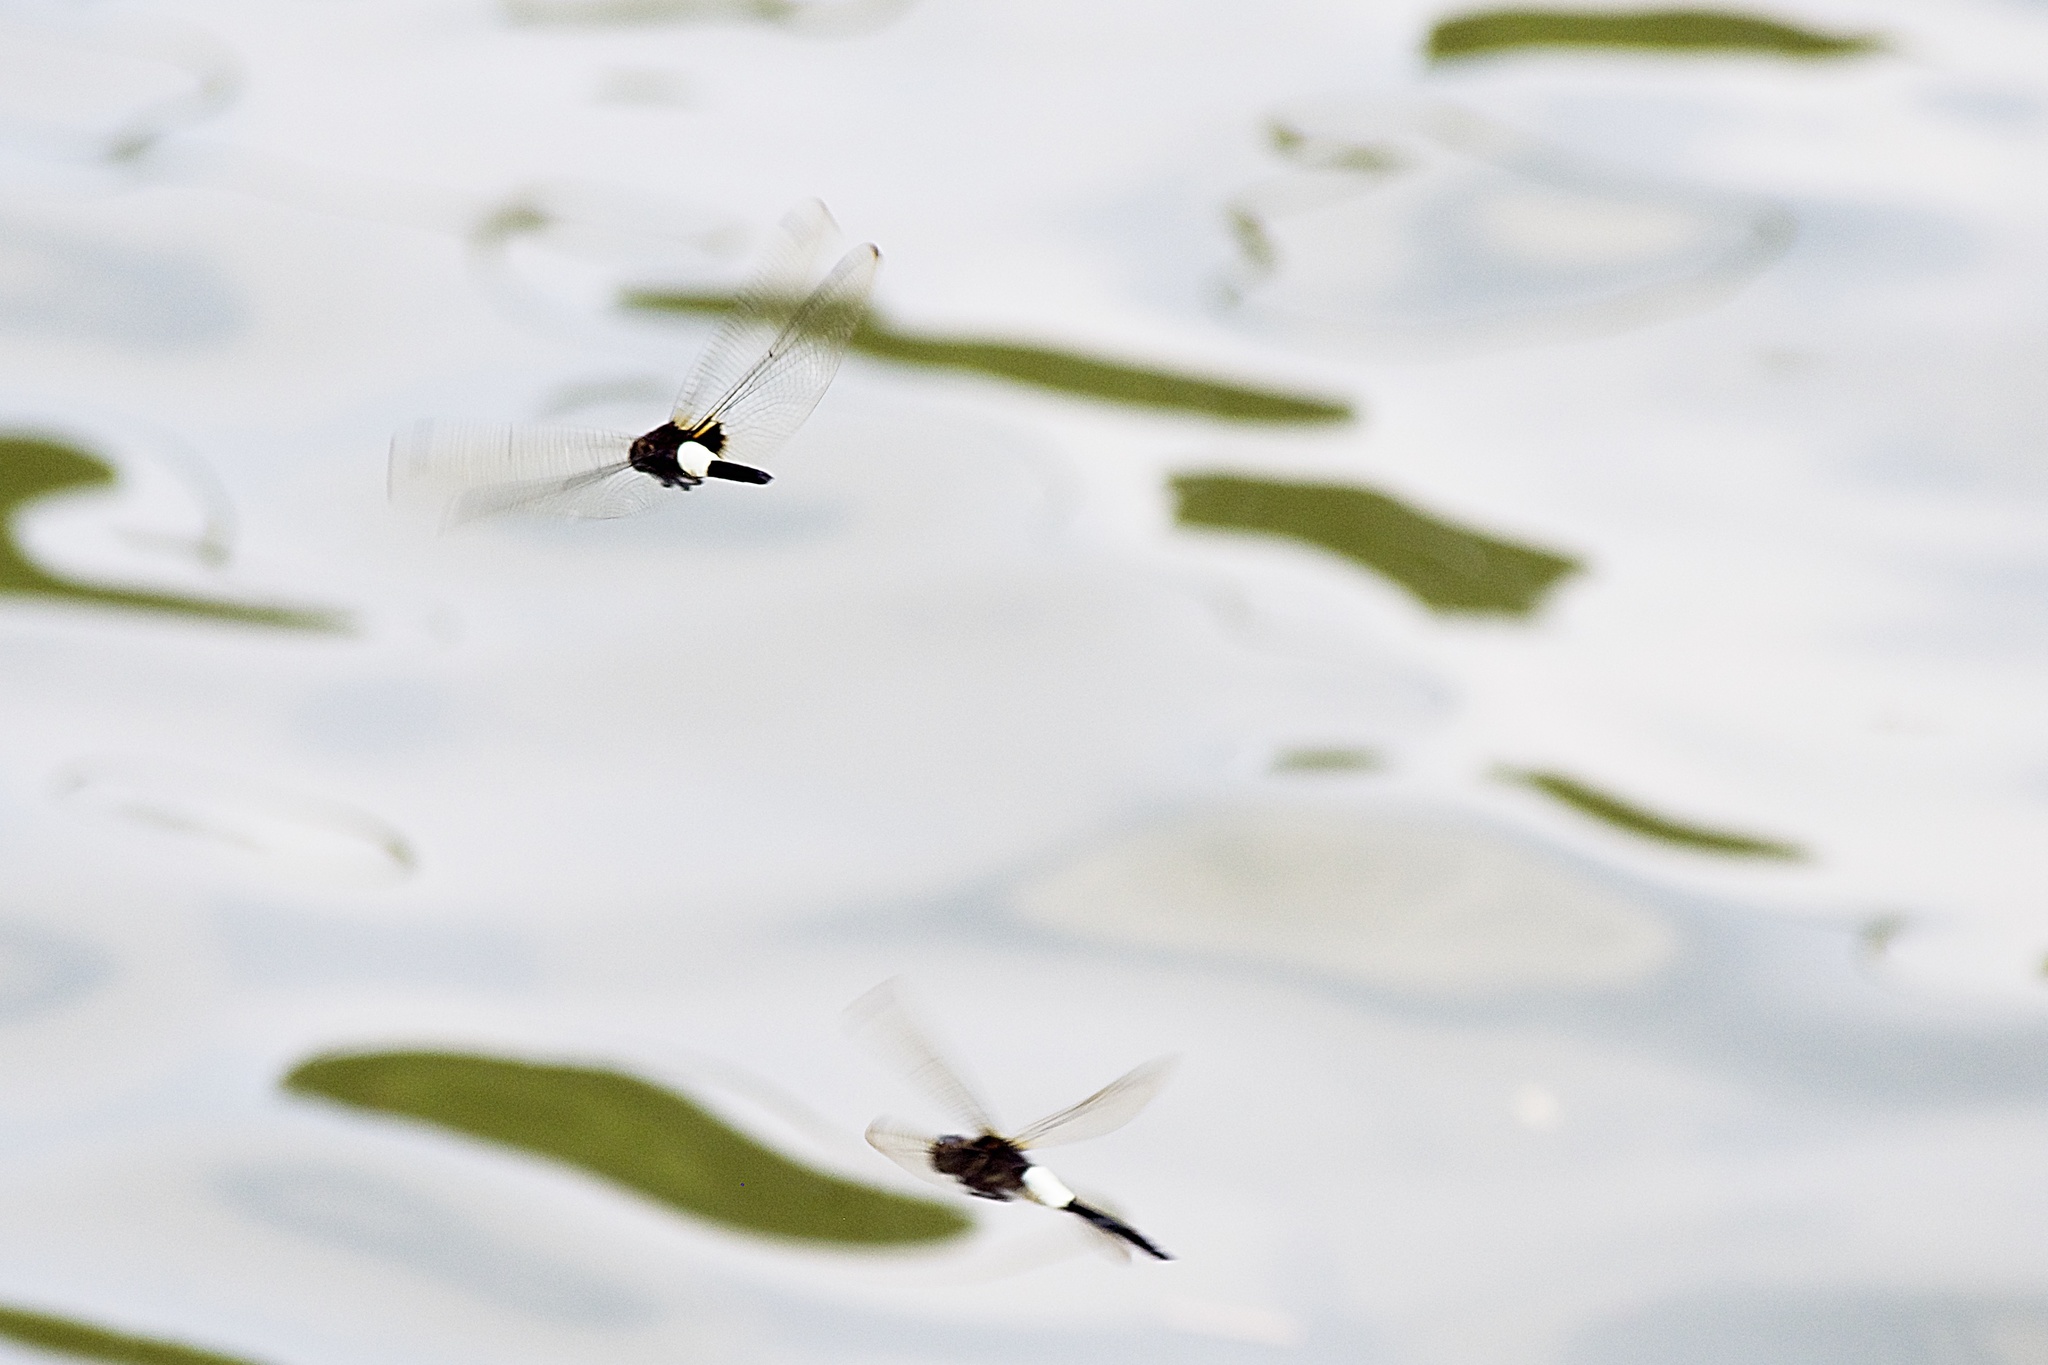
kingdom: Animalia
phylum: Arthropoda
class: Insecta
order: Odonata
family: Libellulidae
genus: Pseudothemis
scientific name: Pseudothemis zonata
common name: Pied skimmer
